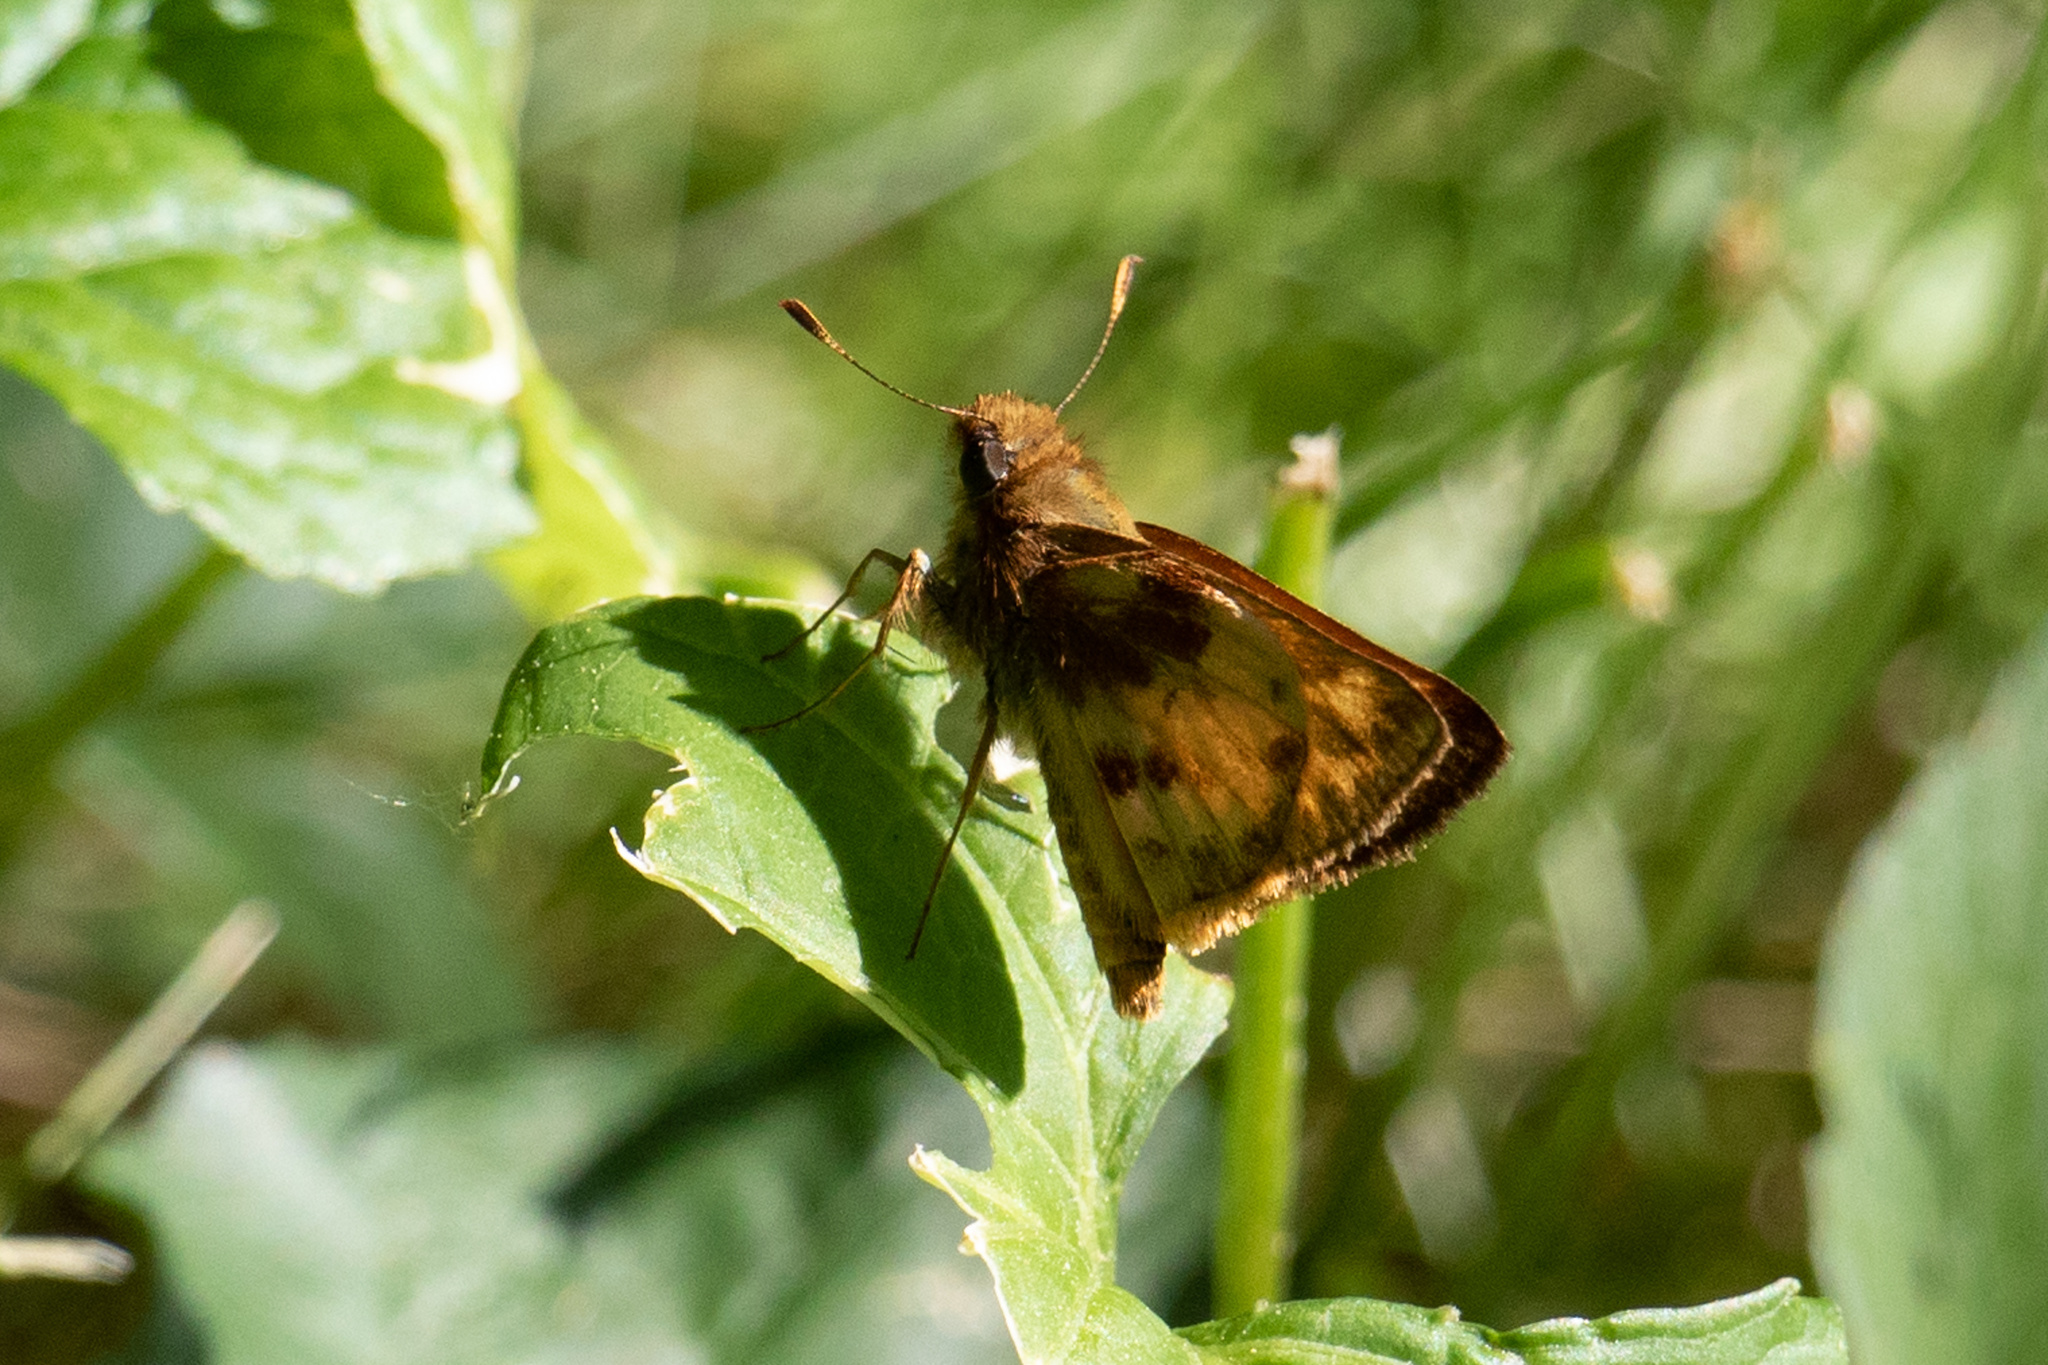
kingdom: Animalia
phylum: Arthropoda
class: Insecta
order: Lepidoptera
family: Hesperiidae
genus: Lon
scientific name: Lon zabulon
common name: Zabulon skipper
